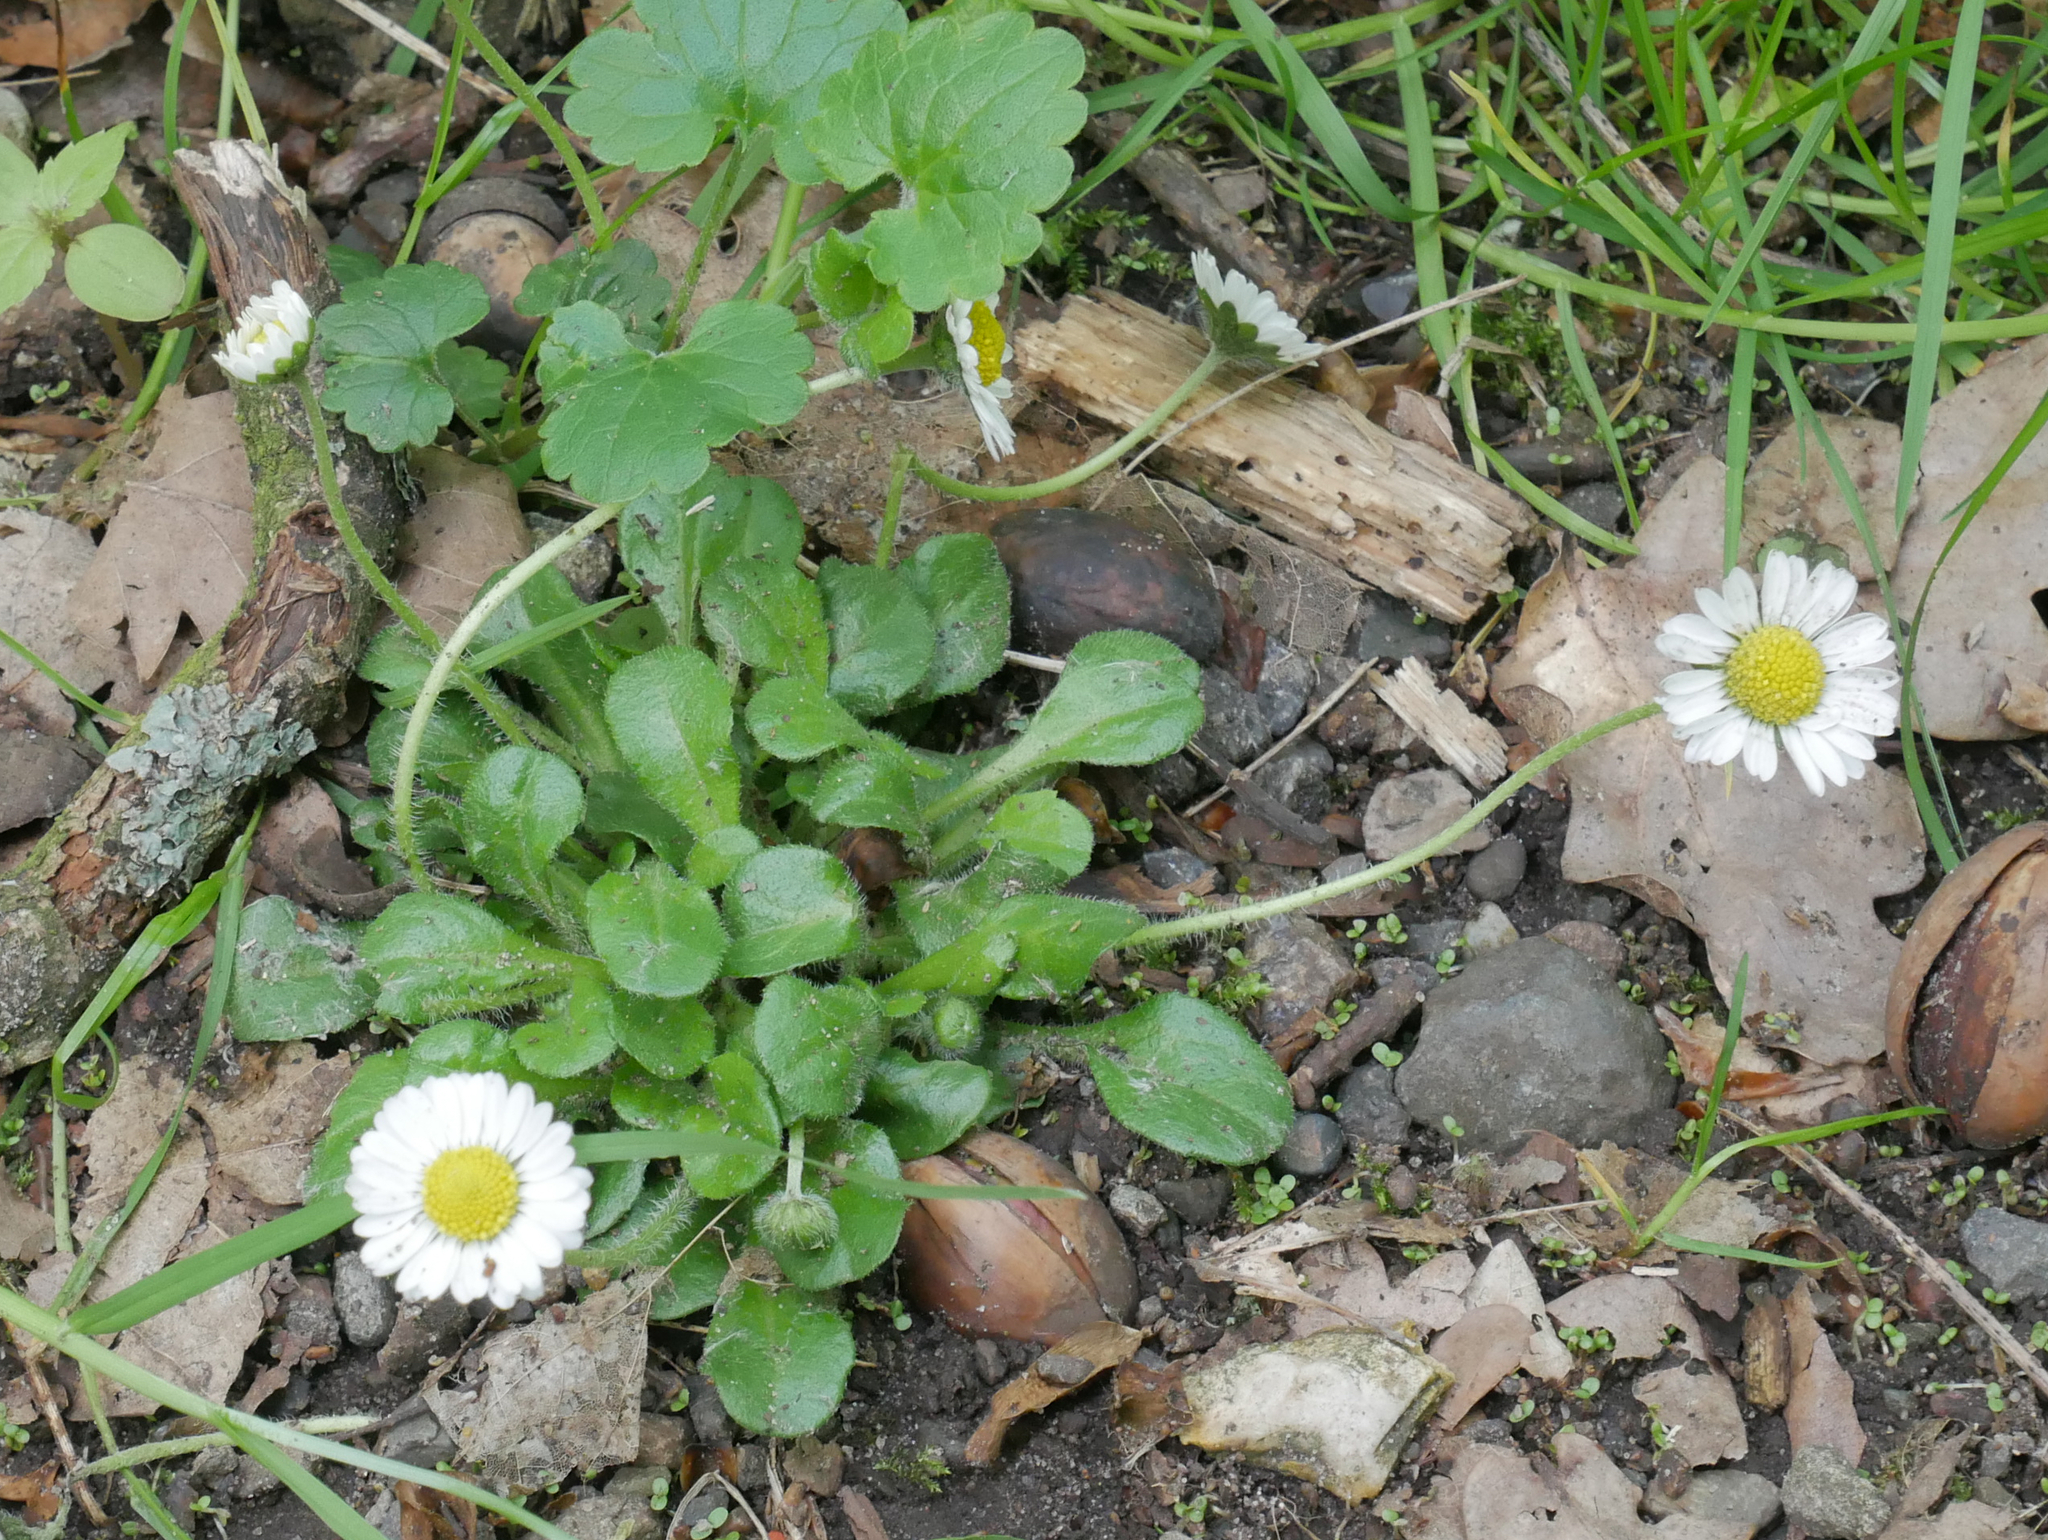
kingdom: Plantae
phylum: Tracheophyta
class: Magnoliopsida
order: Asterales
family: Asteraceae
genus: Bellis
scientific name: Bellis perennis
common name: Lawndaisy
